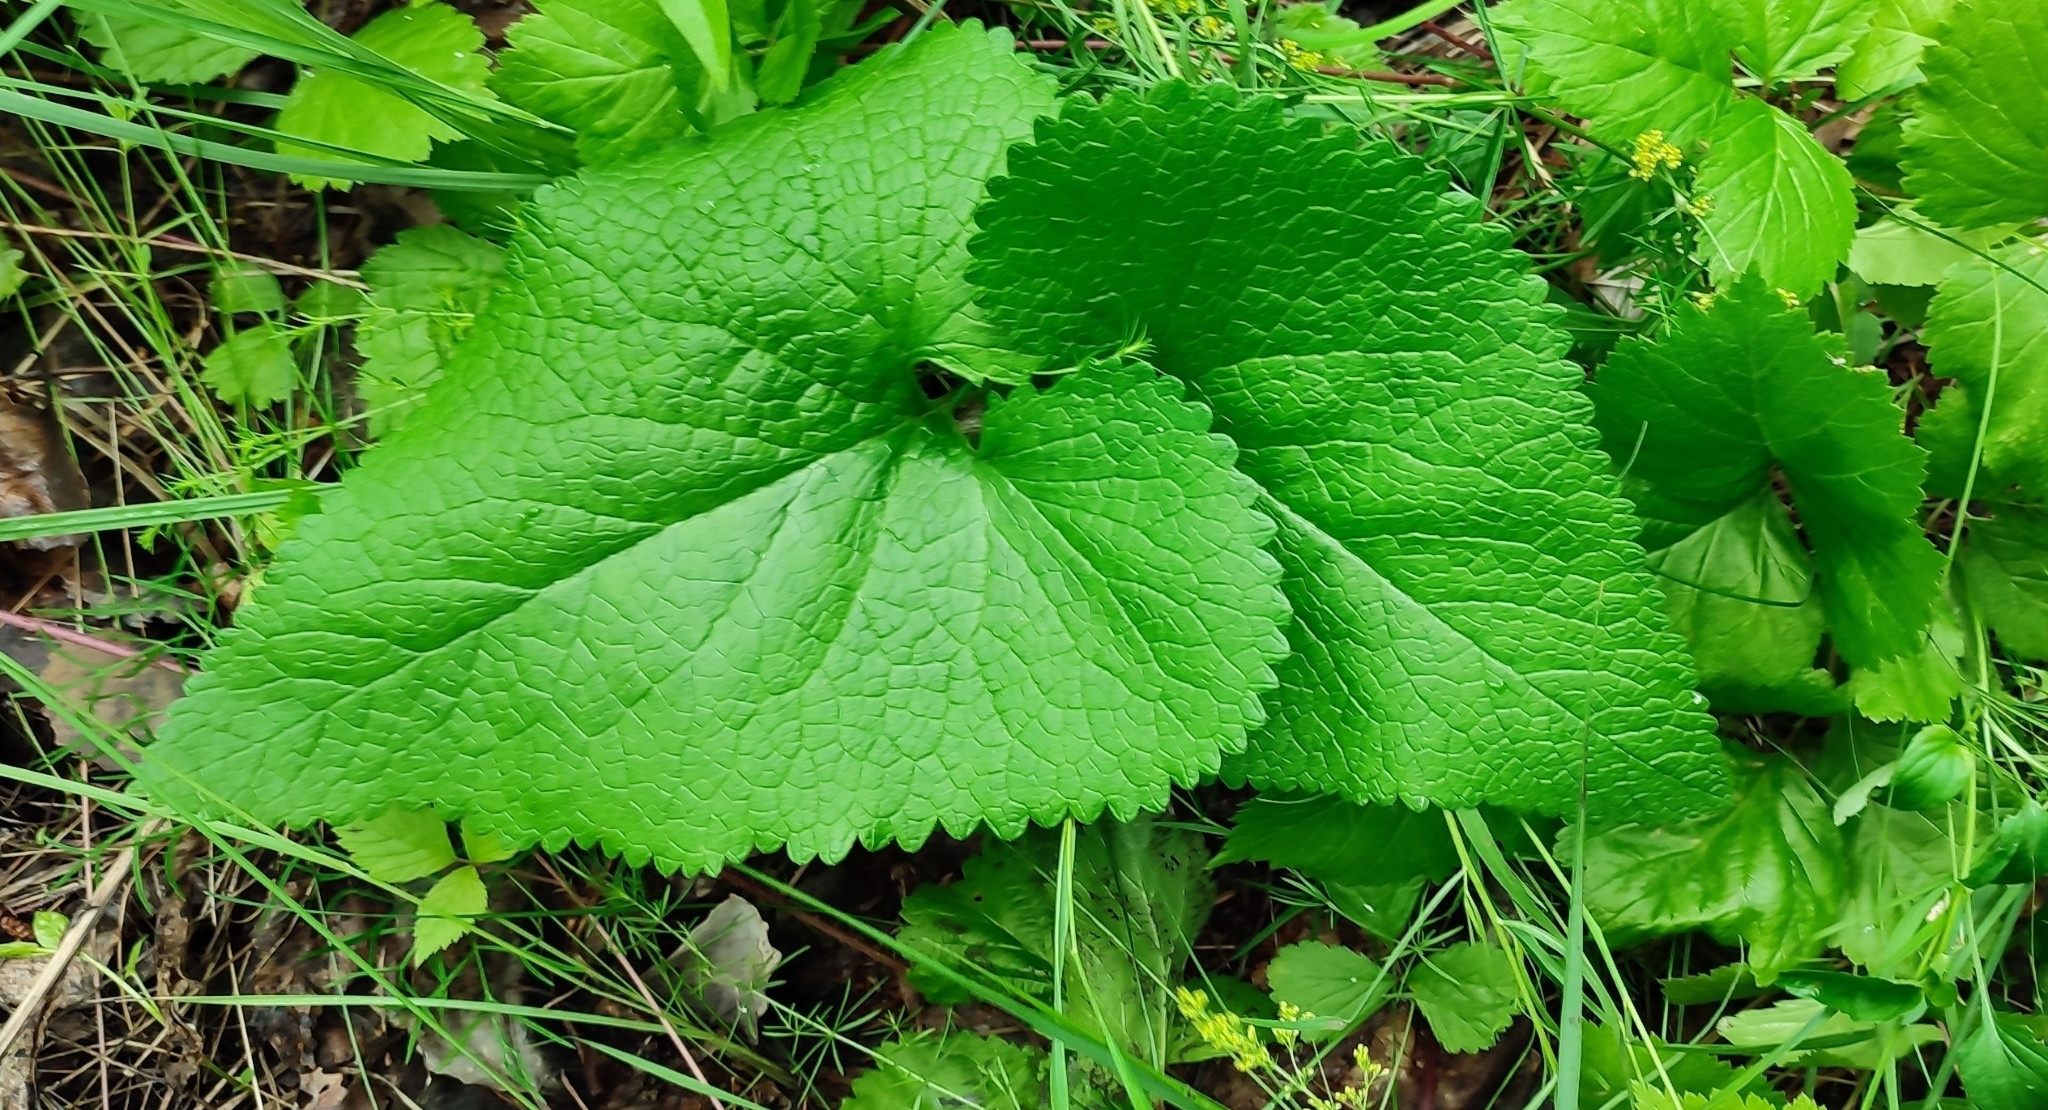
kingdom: Plantae
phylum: Tracheophyta
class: Magnoliopsida
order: Lamiales
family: Lamiaceae
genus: Phlomoides
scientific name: Phlomoides tuberosa
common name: Tuberous jerusalem sage
